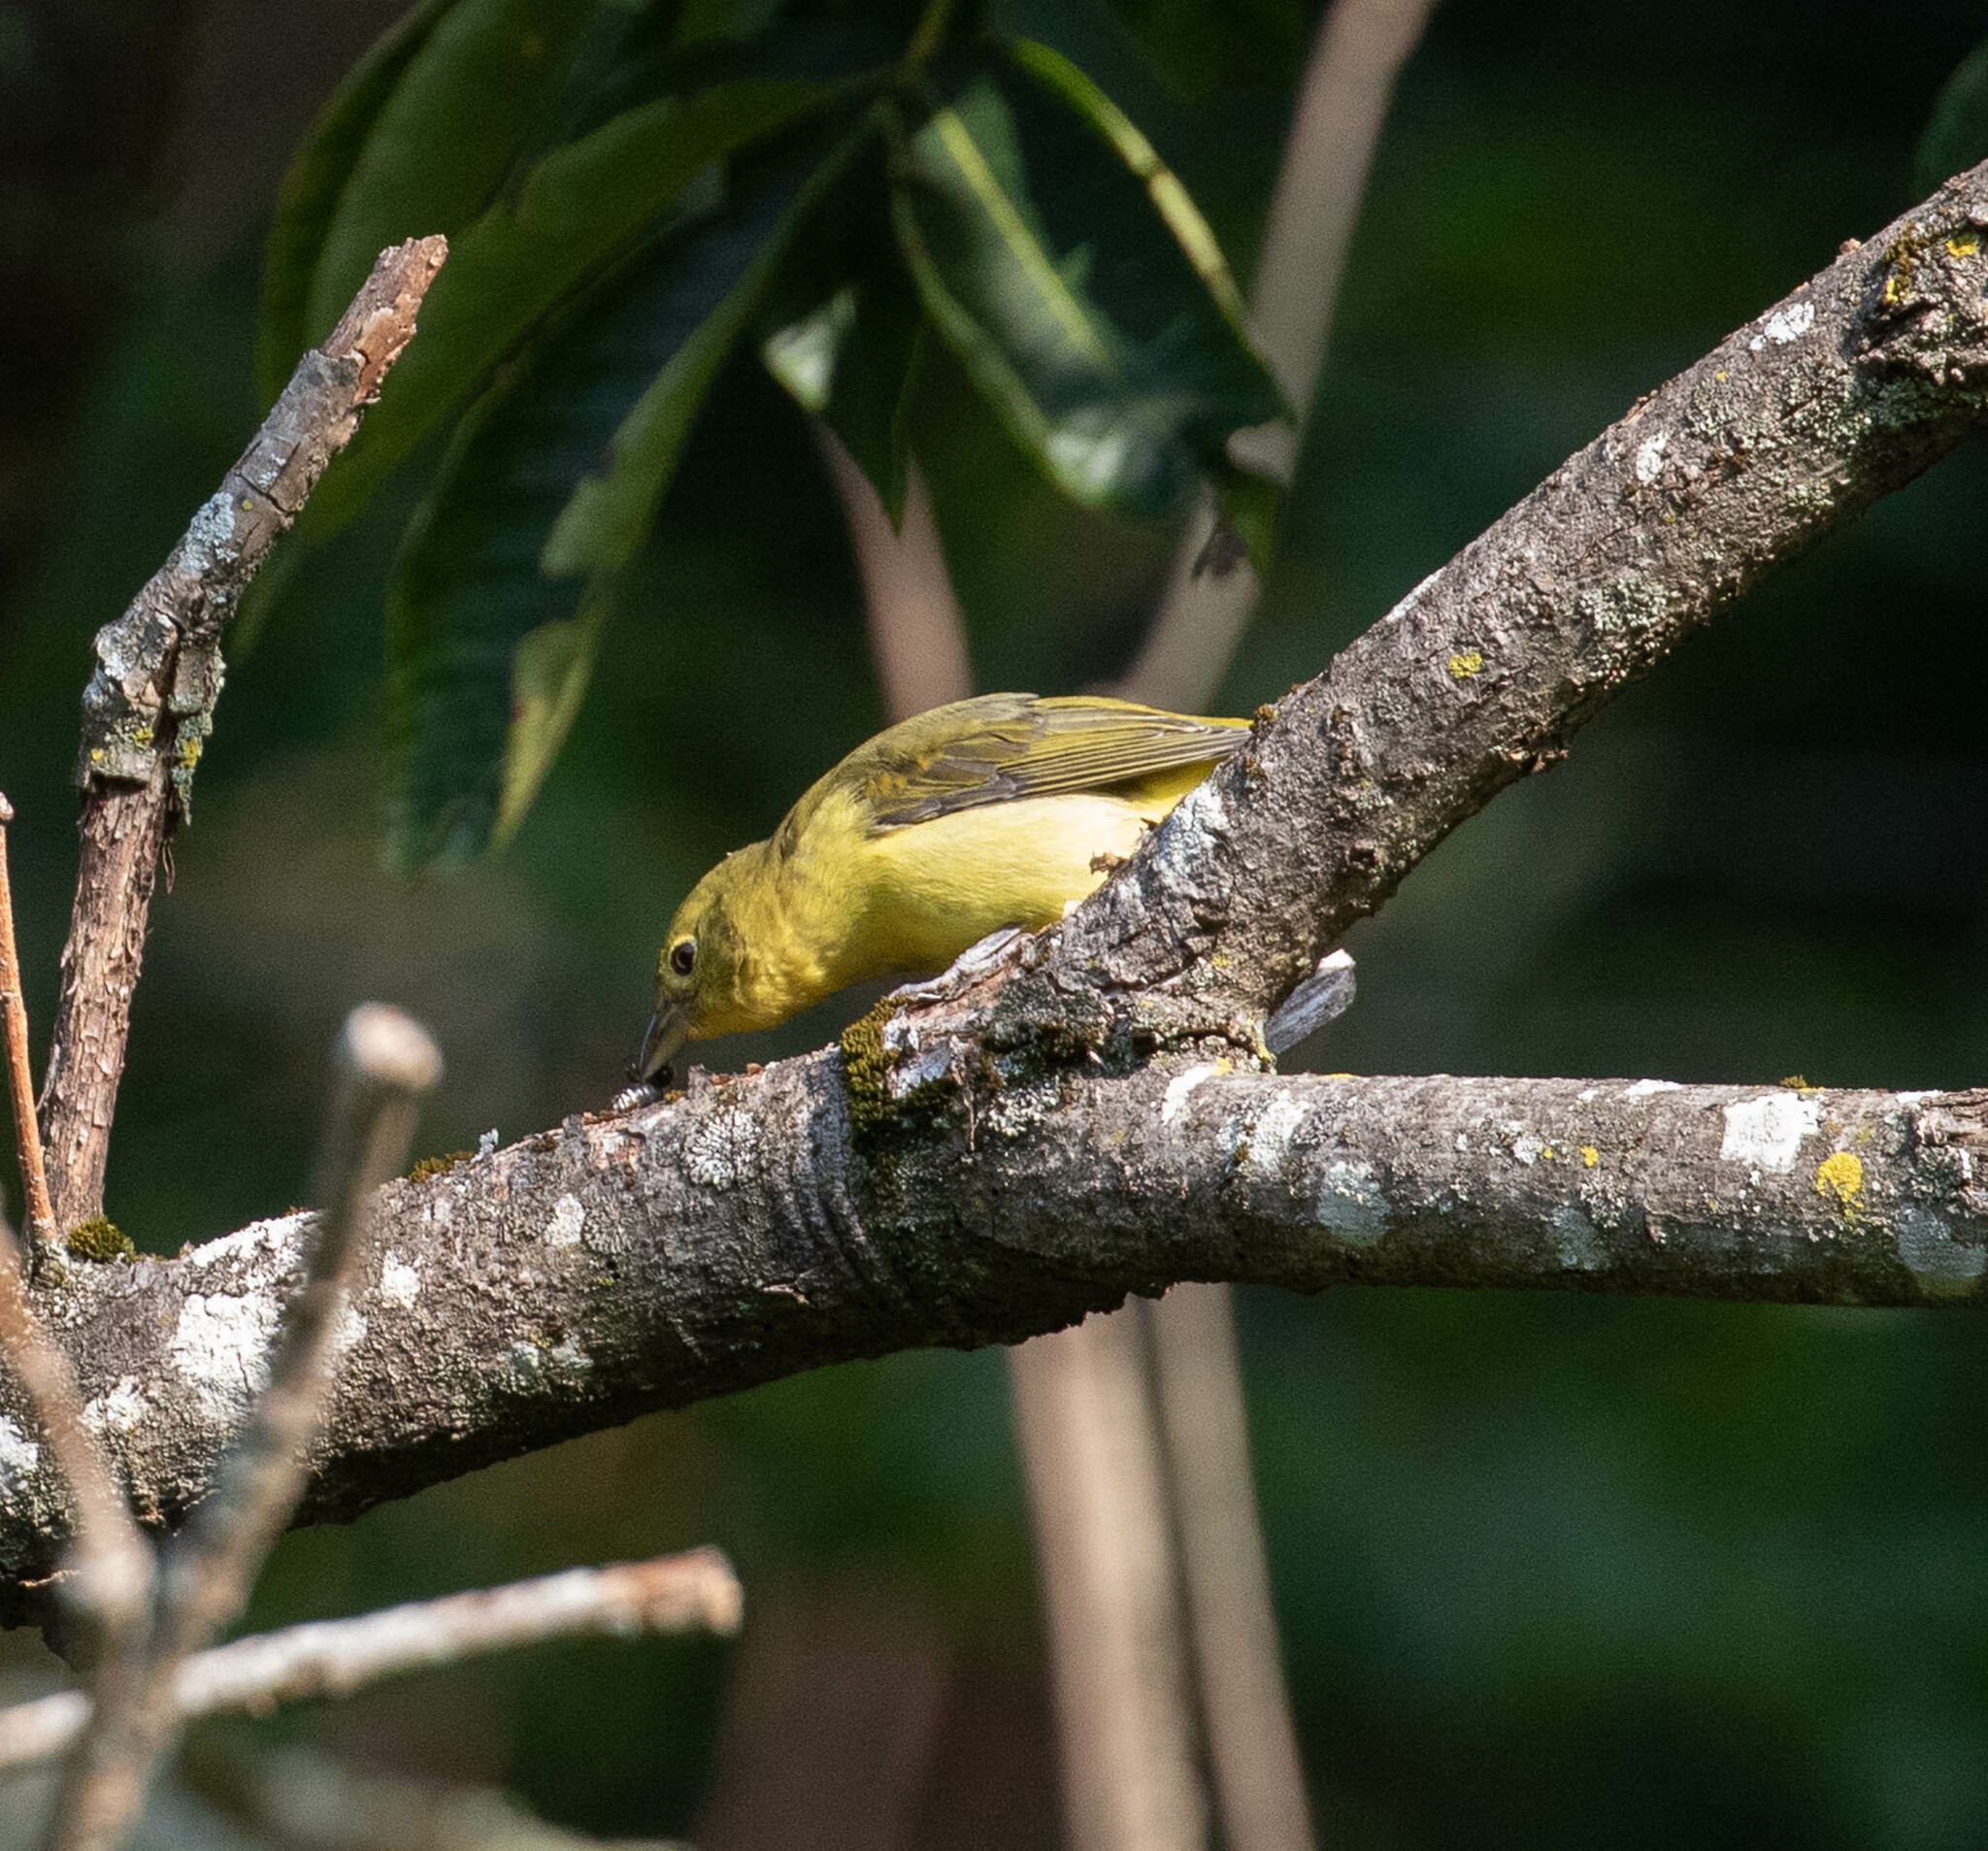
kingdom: Animalia
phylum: Chordata
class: Aves
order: Passeriformes
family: Cardinalidae
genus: Piranga
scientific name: Piranga olivacea
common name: Scarlet tanager
